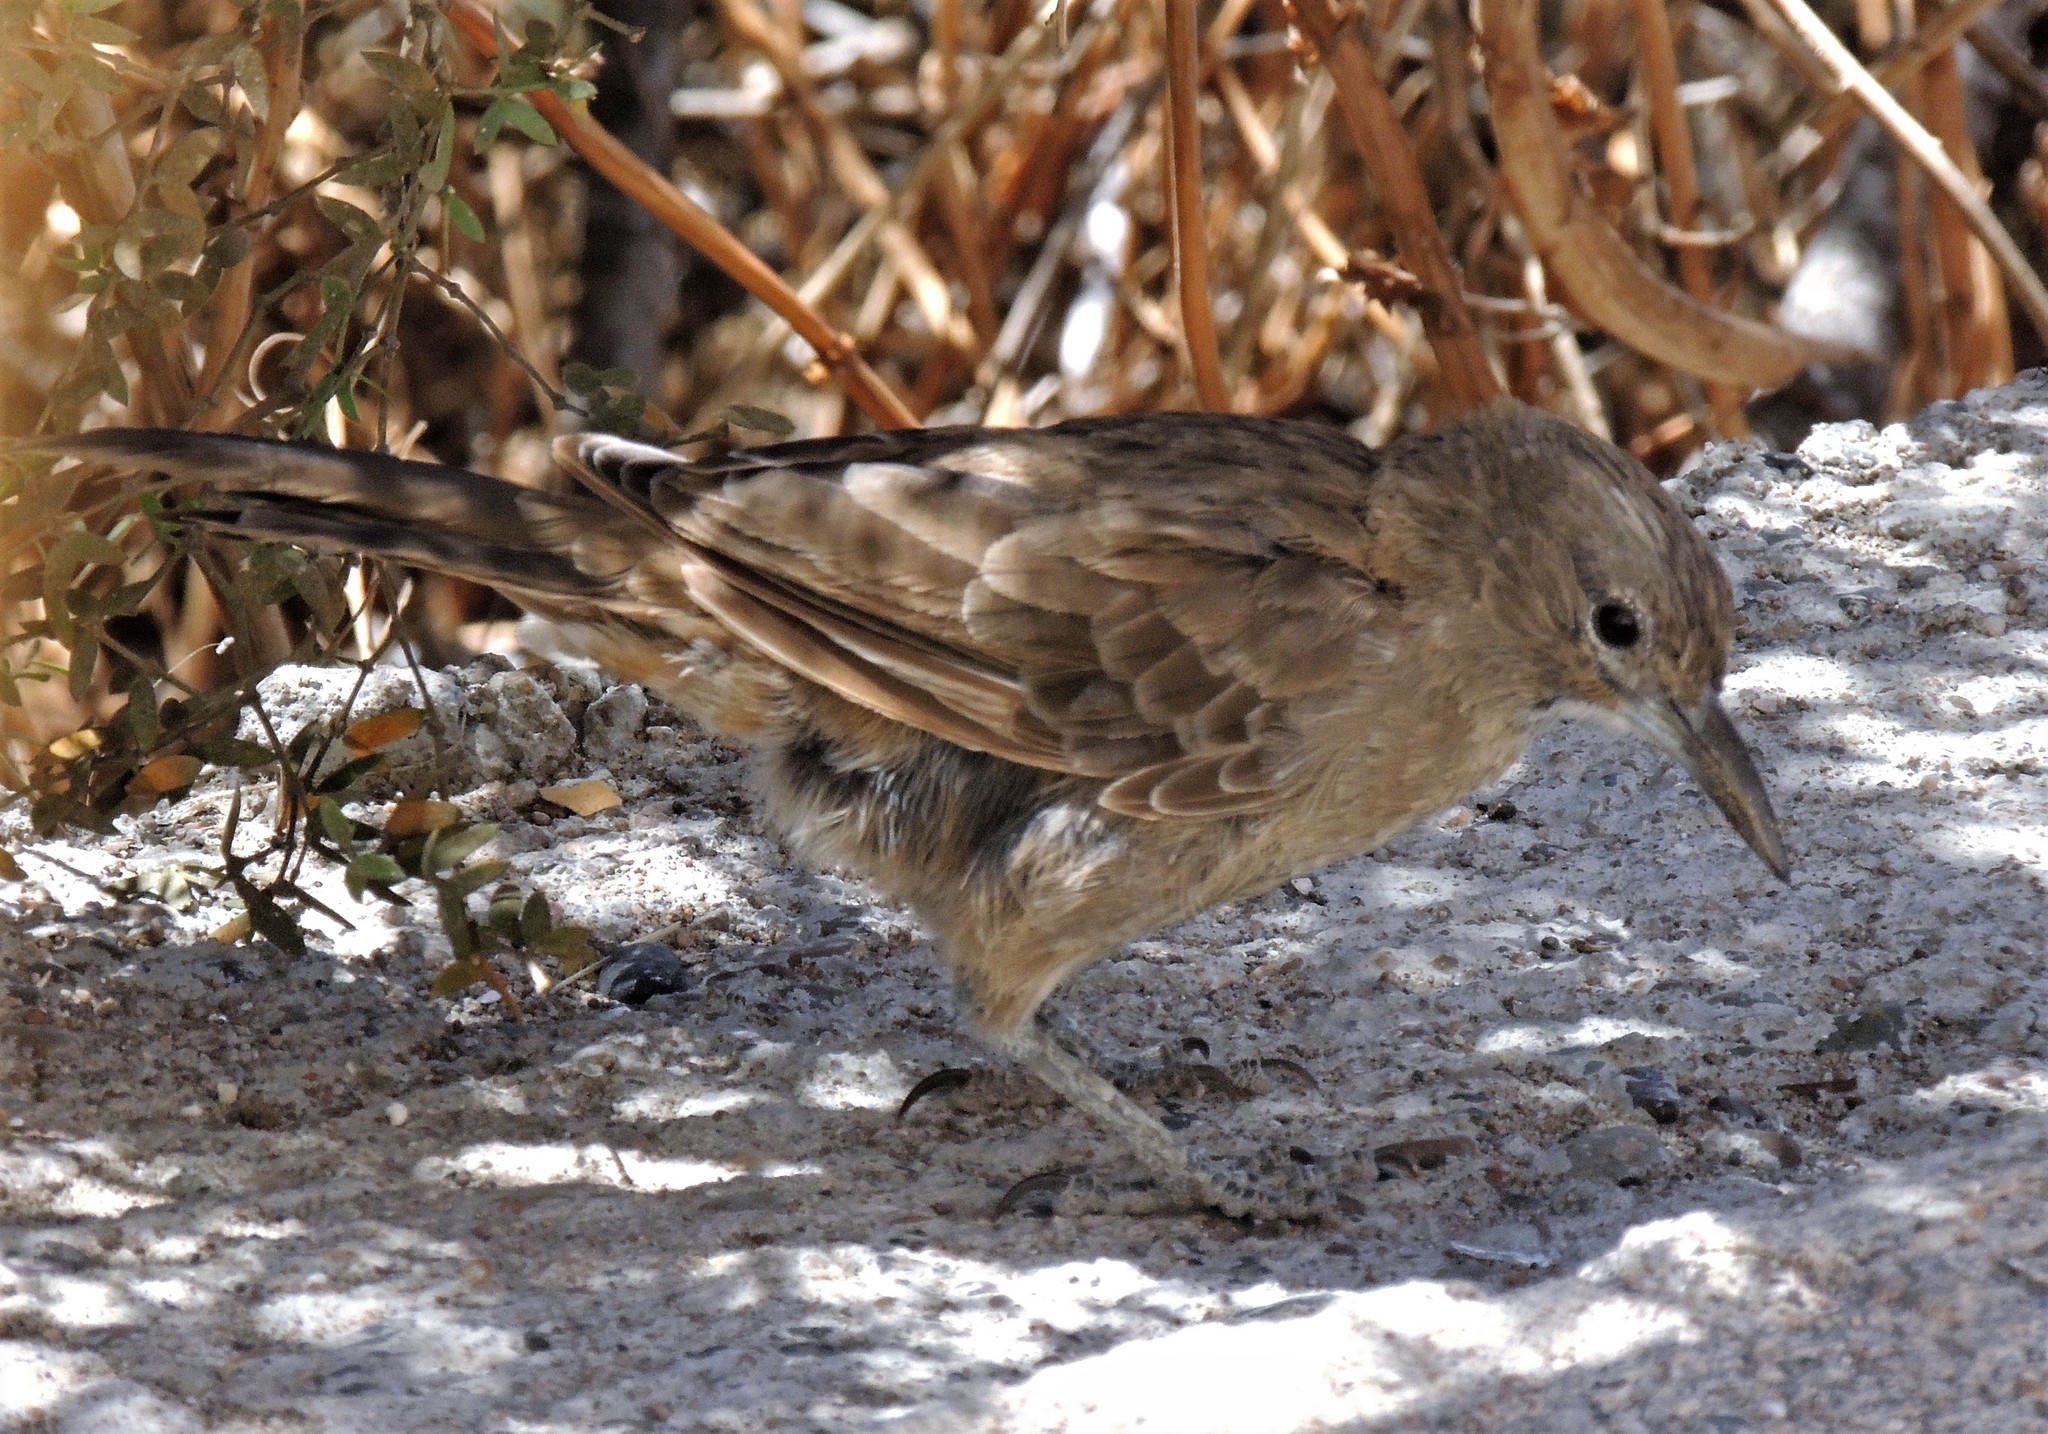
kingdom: Animalia
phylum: Chordata
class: Aves
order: Passeriformes
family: Furnariidae
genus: Pseudoseisura
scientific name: Pseudoseisura gutturalis
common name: White-throated cacholote
